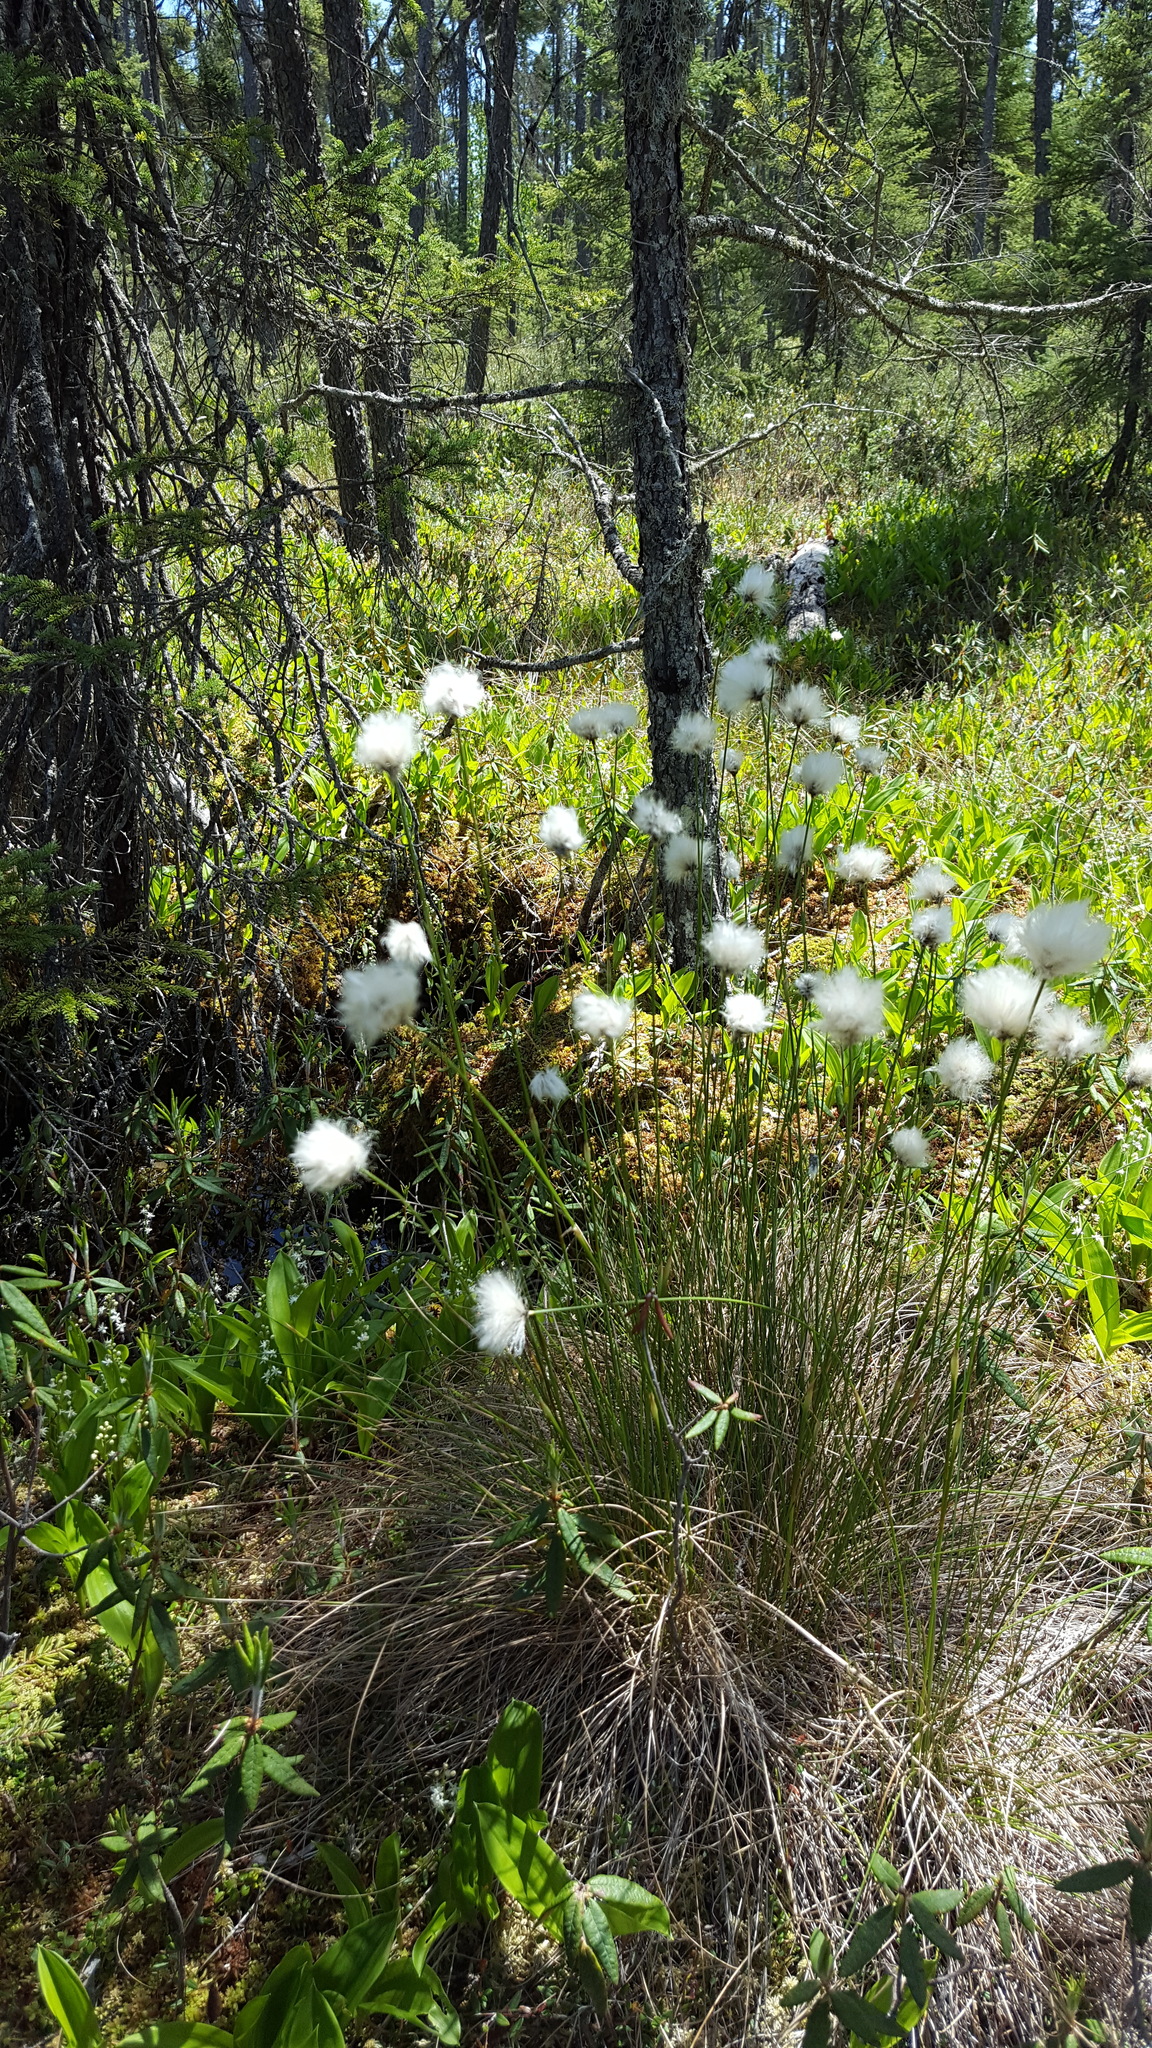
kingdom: Plantae
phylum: Tracheophyta
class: Liliopsida
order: Poales
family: Cyperaceae
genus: Eriophorum
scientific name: Eriophorum vaginatum
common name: Hare's-tail cottongrass
